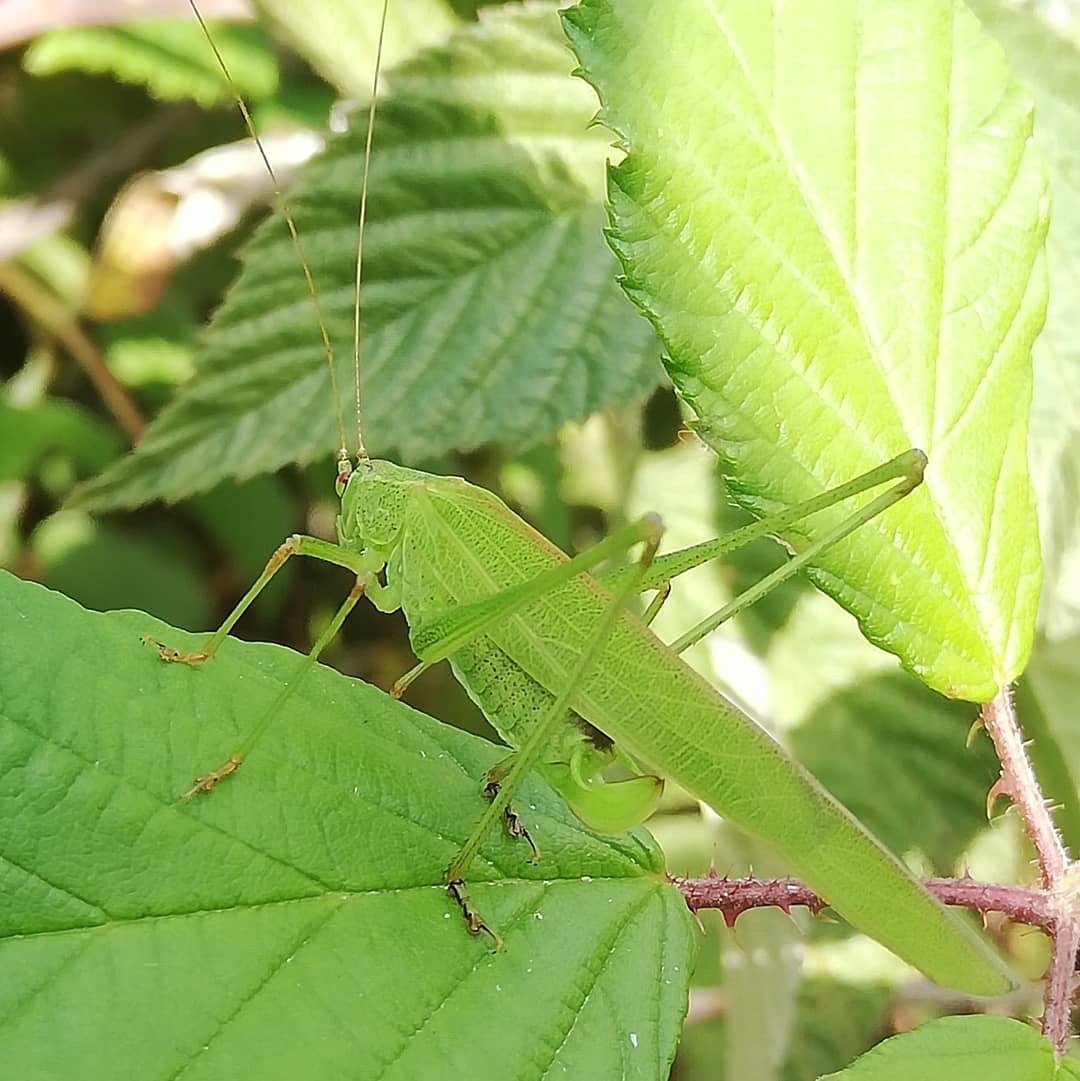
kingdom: Animalia
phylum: Arthropoda
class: Insecta
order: Orthoptera
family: Tettigoniidae
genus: Phaneroptera
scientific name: Phaneroptera falcata
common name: Sickle-bearing bush-cricket
